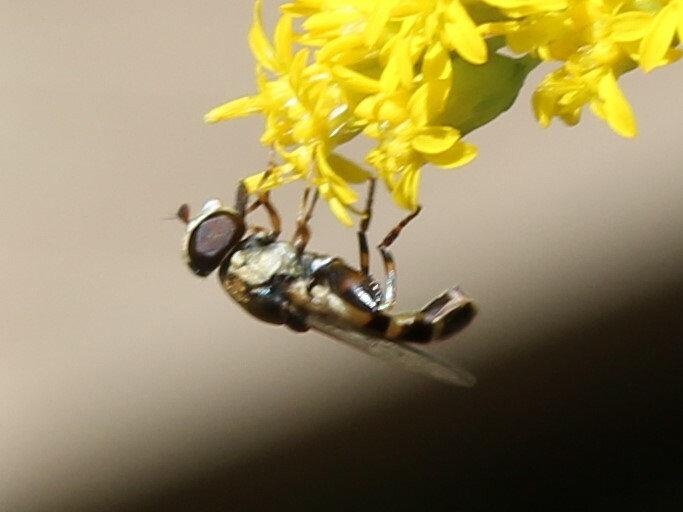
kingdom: Animalia
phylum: Arthropoda
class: Insecta
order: Diptera
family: Syrphidae
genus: Syritta
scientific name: Syritta pipiens
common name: Hover fly
